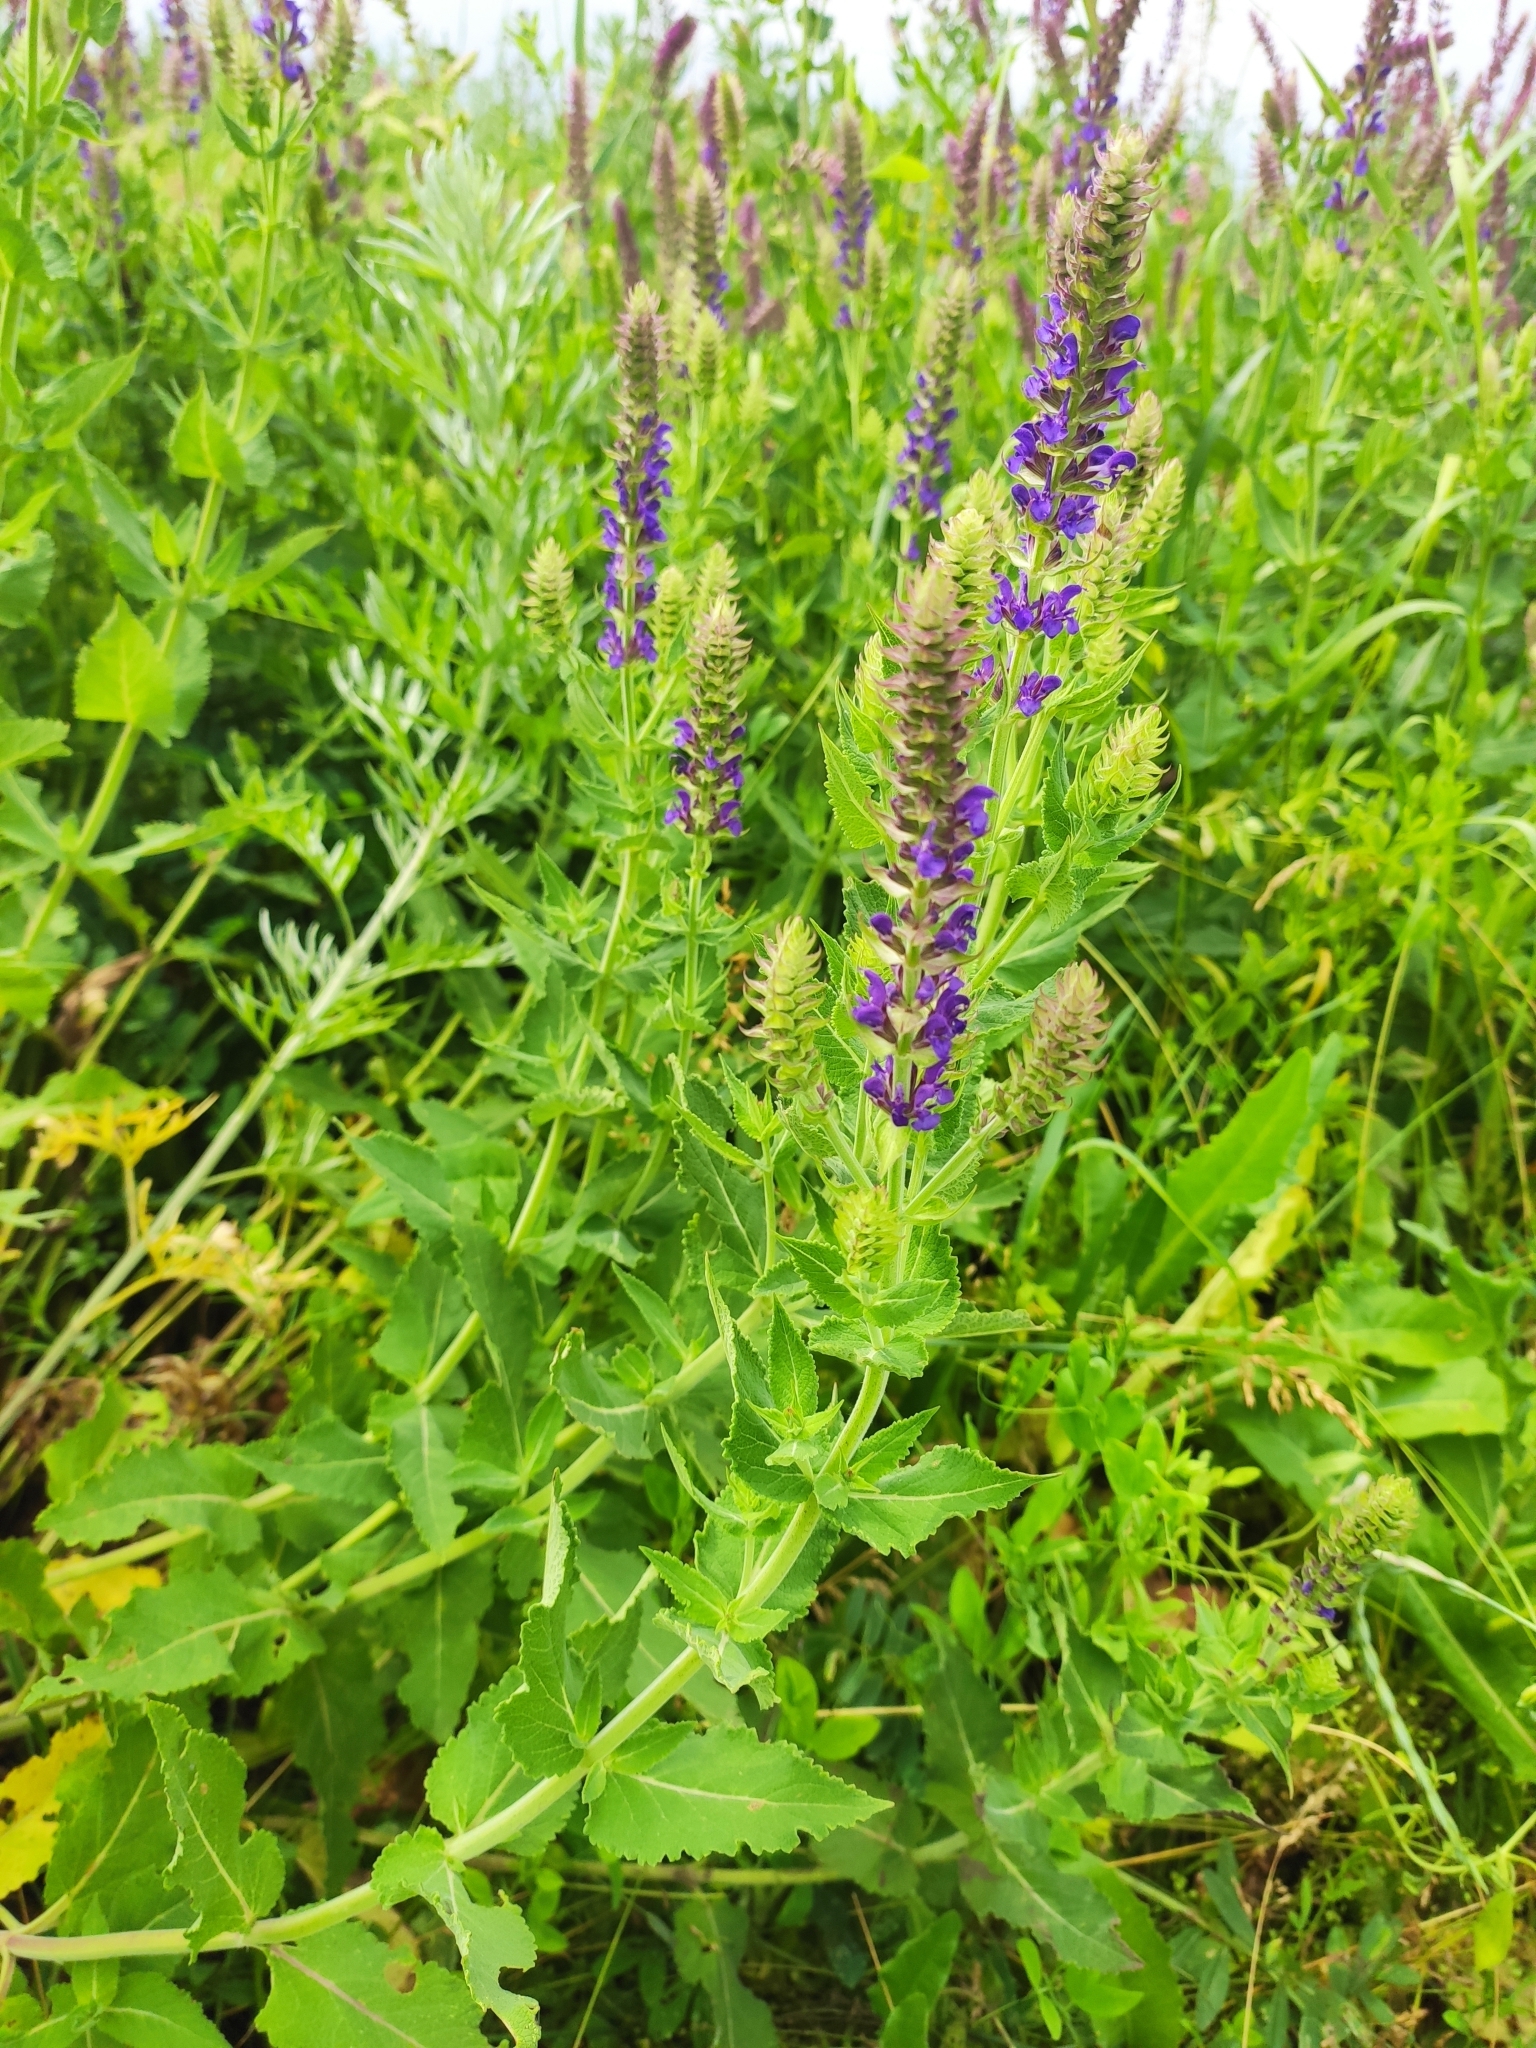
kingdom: Plantae
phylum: Tracheophyta
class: Magnoliopsida
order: Lamiales
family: Lamiaceae
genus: Salvia
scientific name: Salvia nemorosa
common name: Balkan clary
